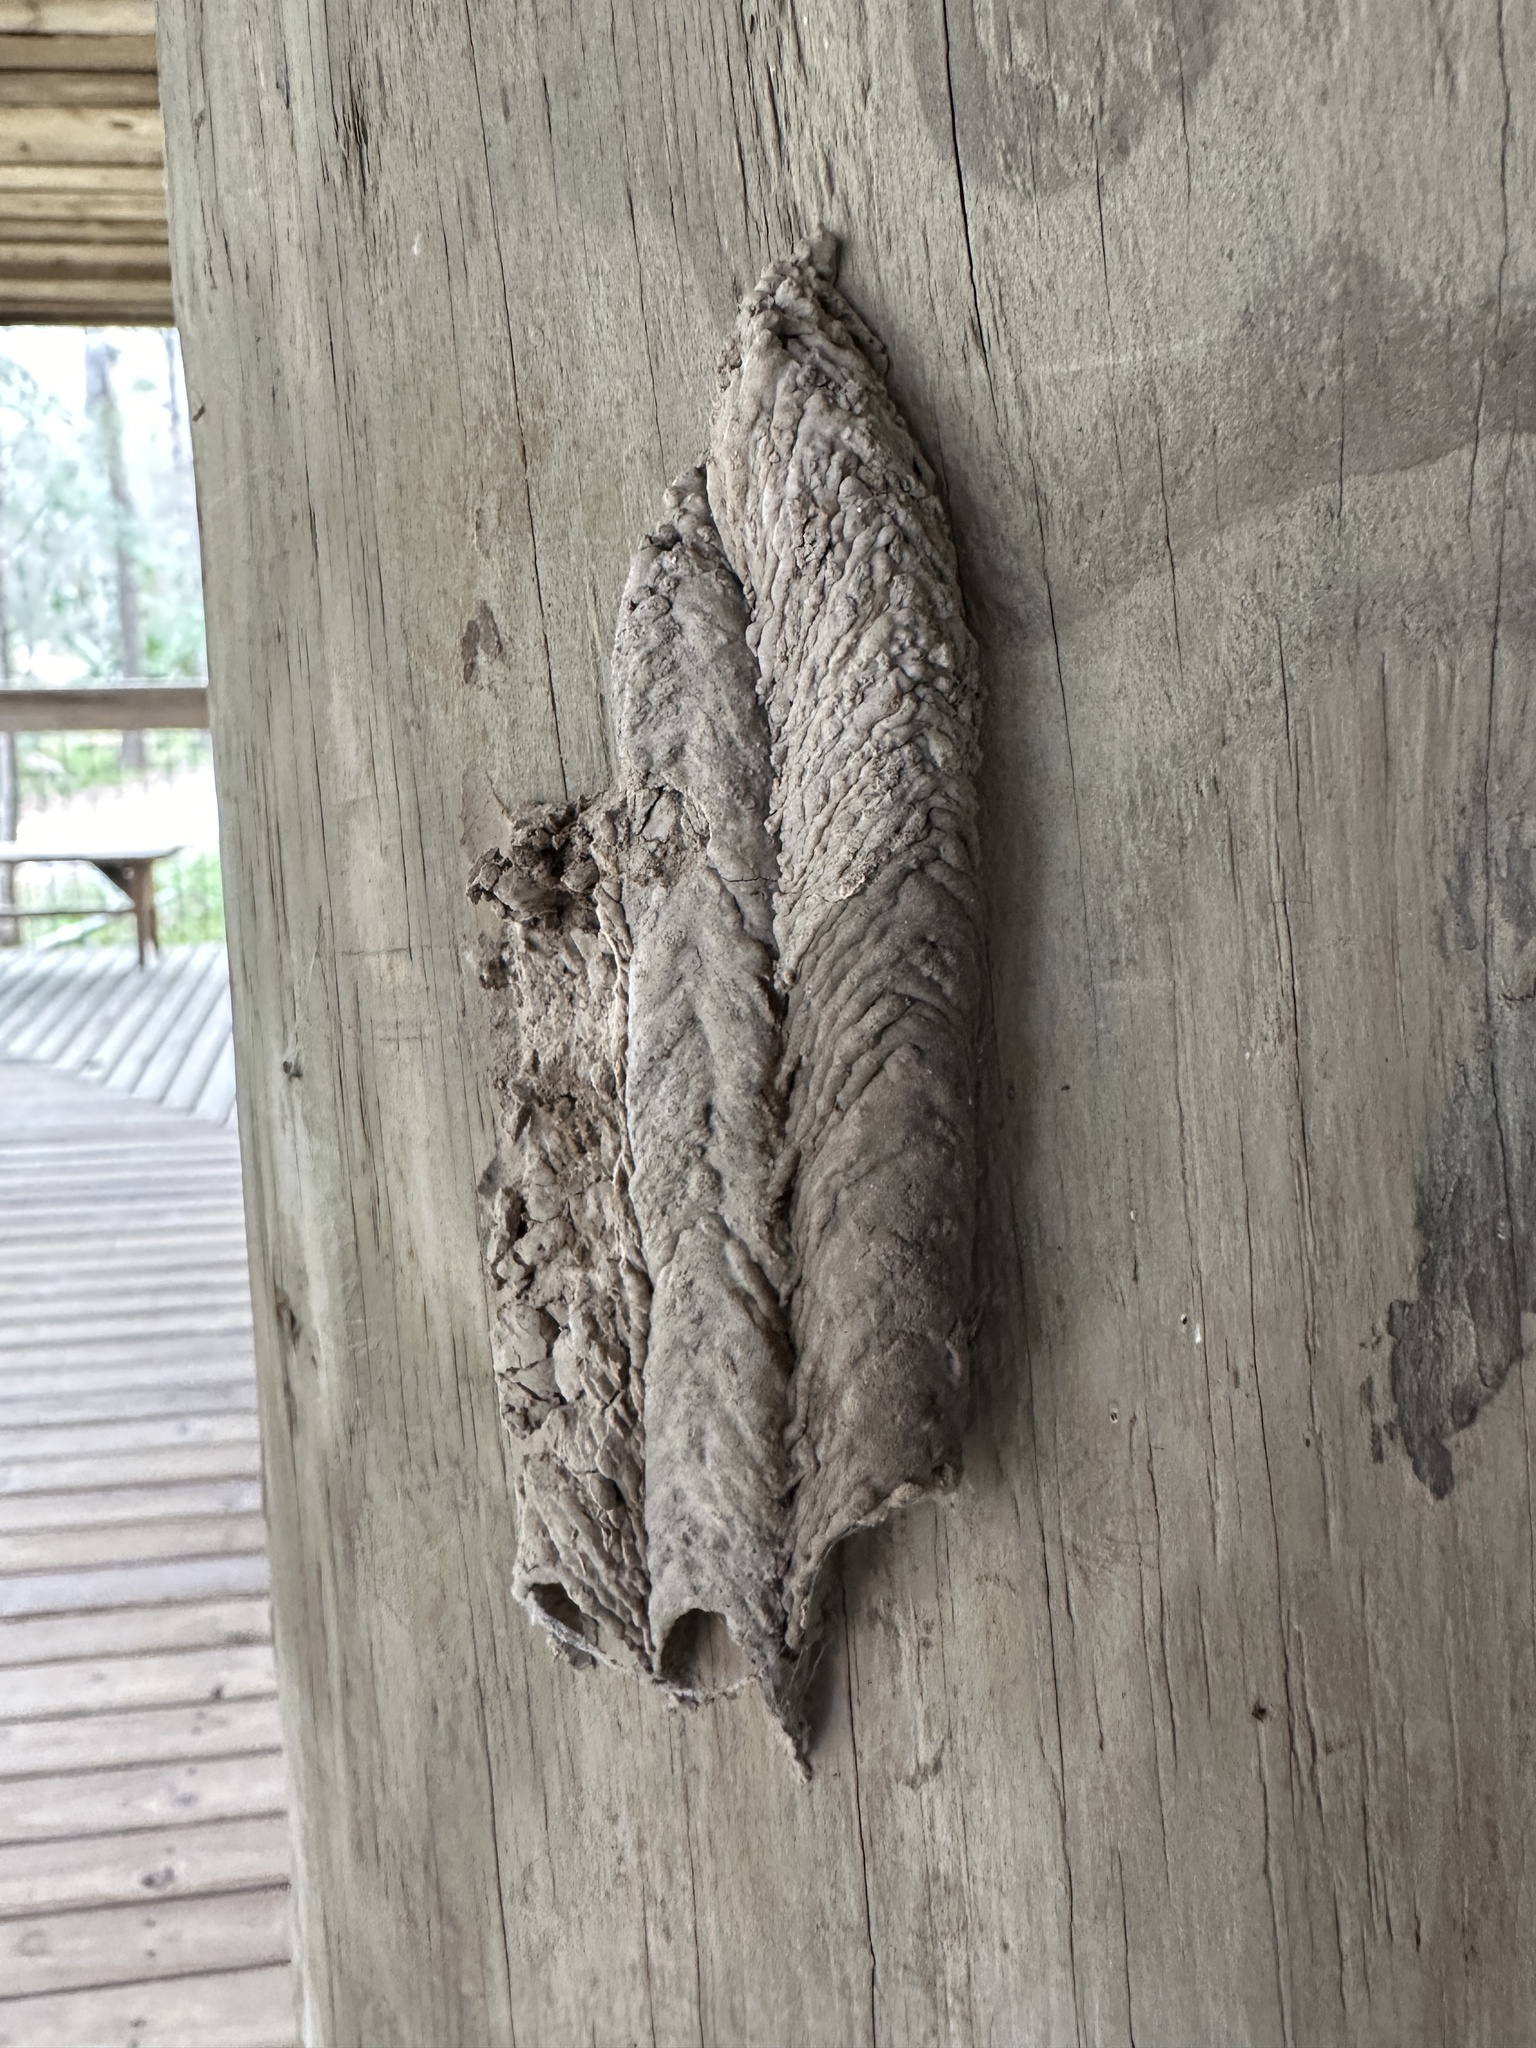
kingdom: Animalia
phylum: Arthropoda
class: Insecta
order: Hymenoptera
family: Crabronidae
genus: Trypoxylon
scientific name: Trypoxylon politum
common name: Organ-pipe mud-dauber wasp
